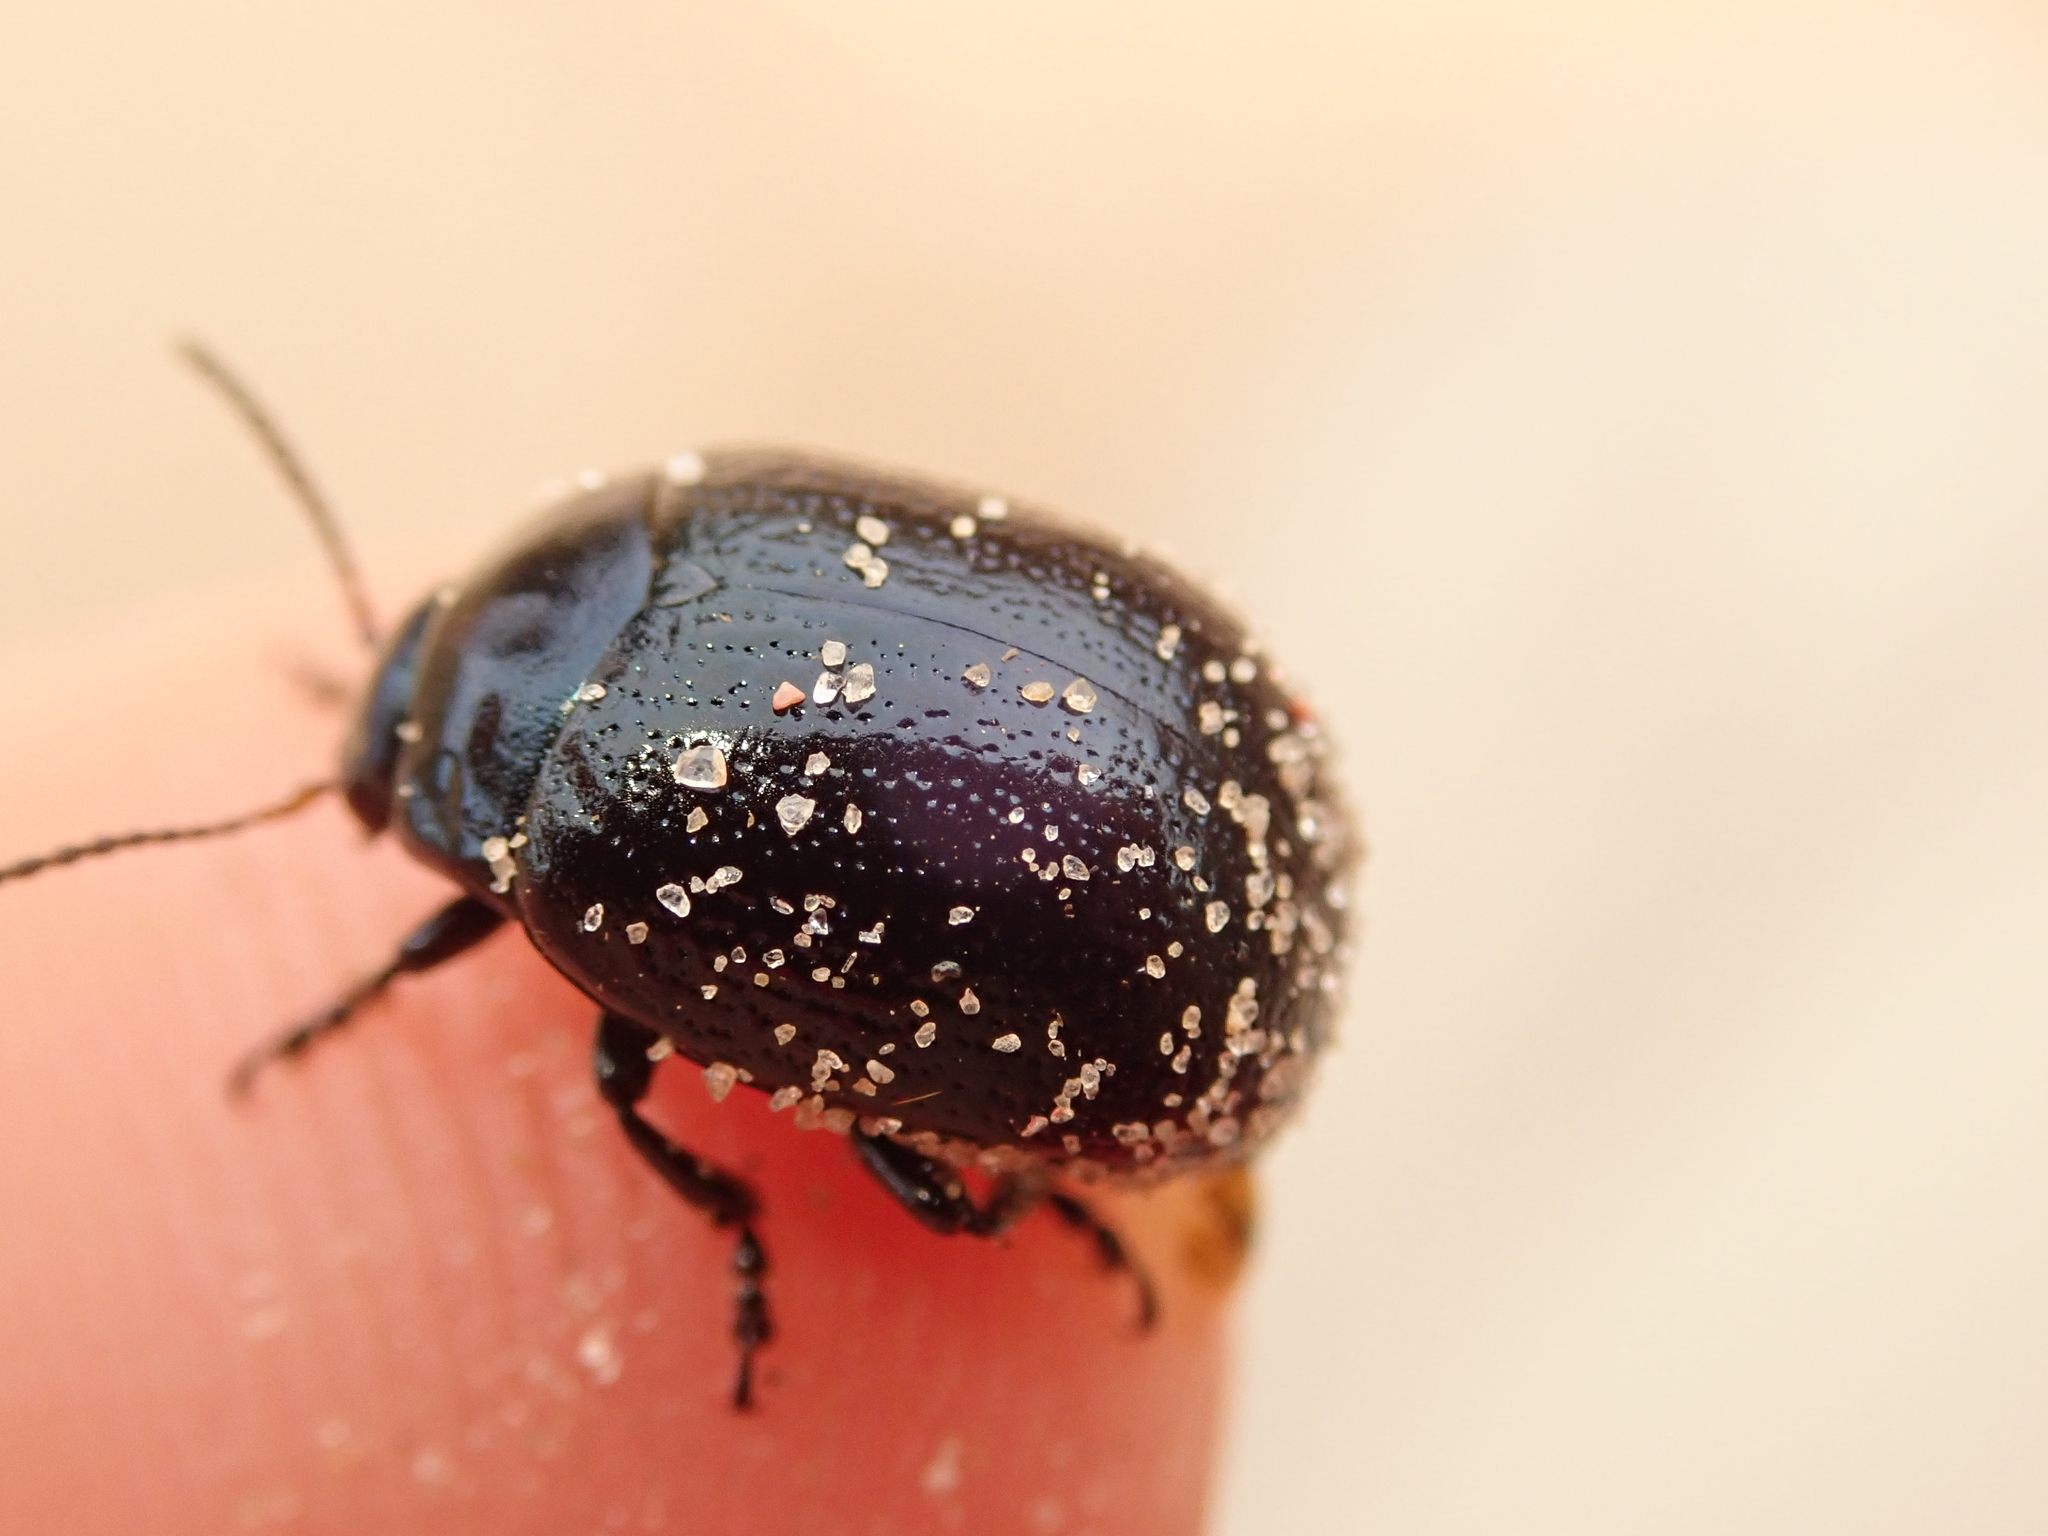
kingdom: Animalia
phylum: Arthropoda
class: Insecta
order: Coleoptera
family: Chrysomelidae
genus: Chrysolina
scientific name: Chrysolina haemoptera
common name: Plantain leaf beetle
